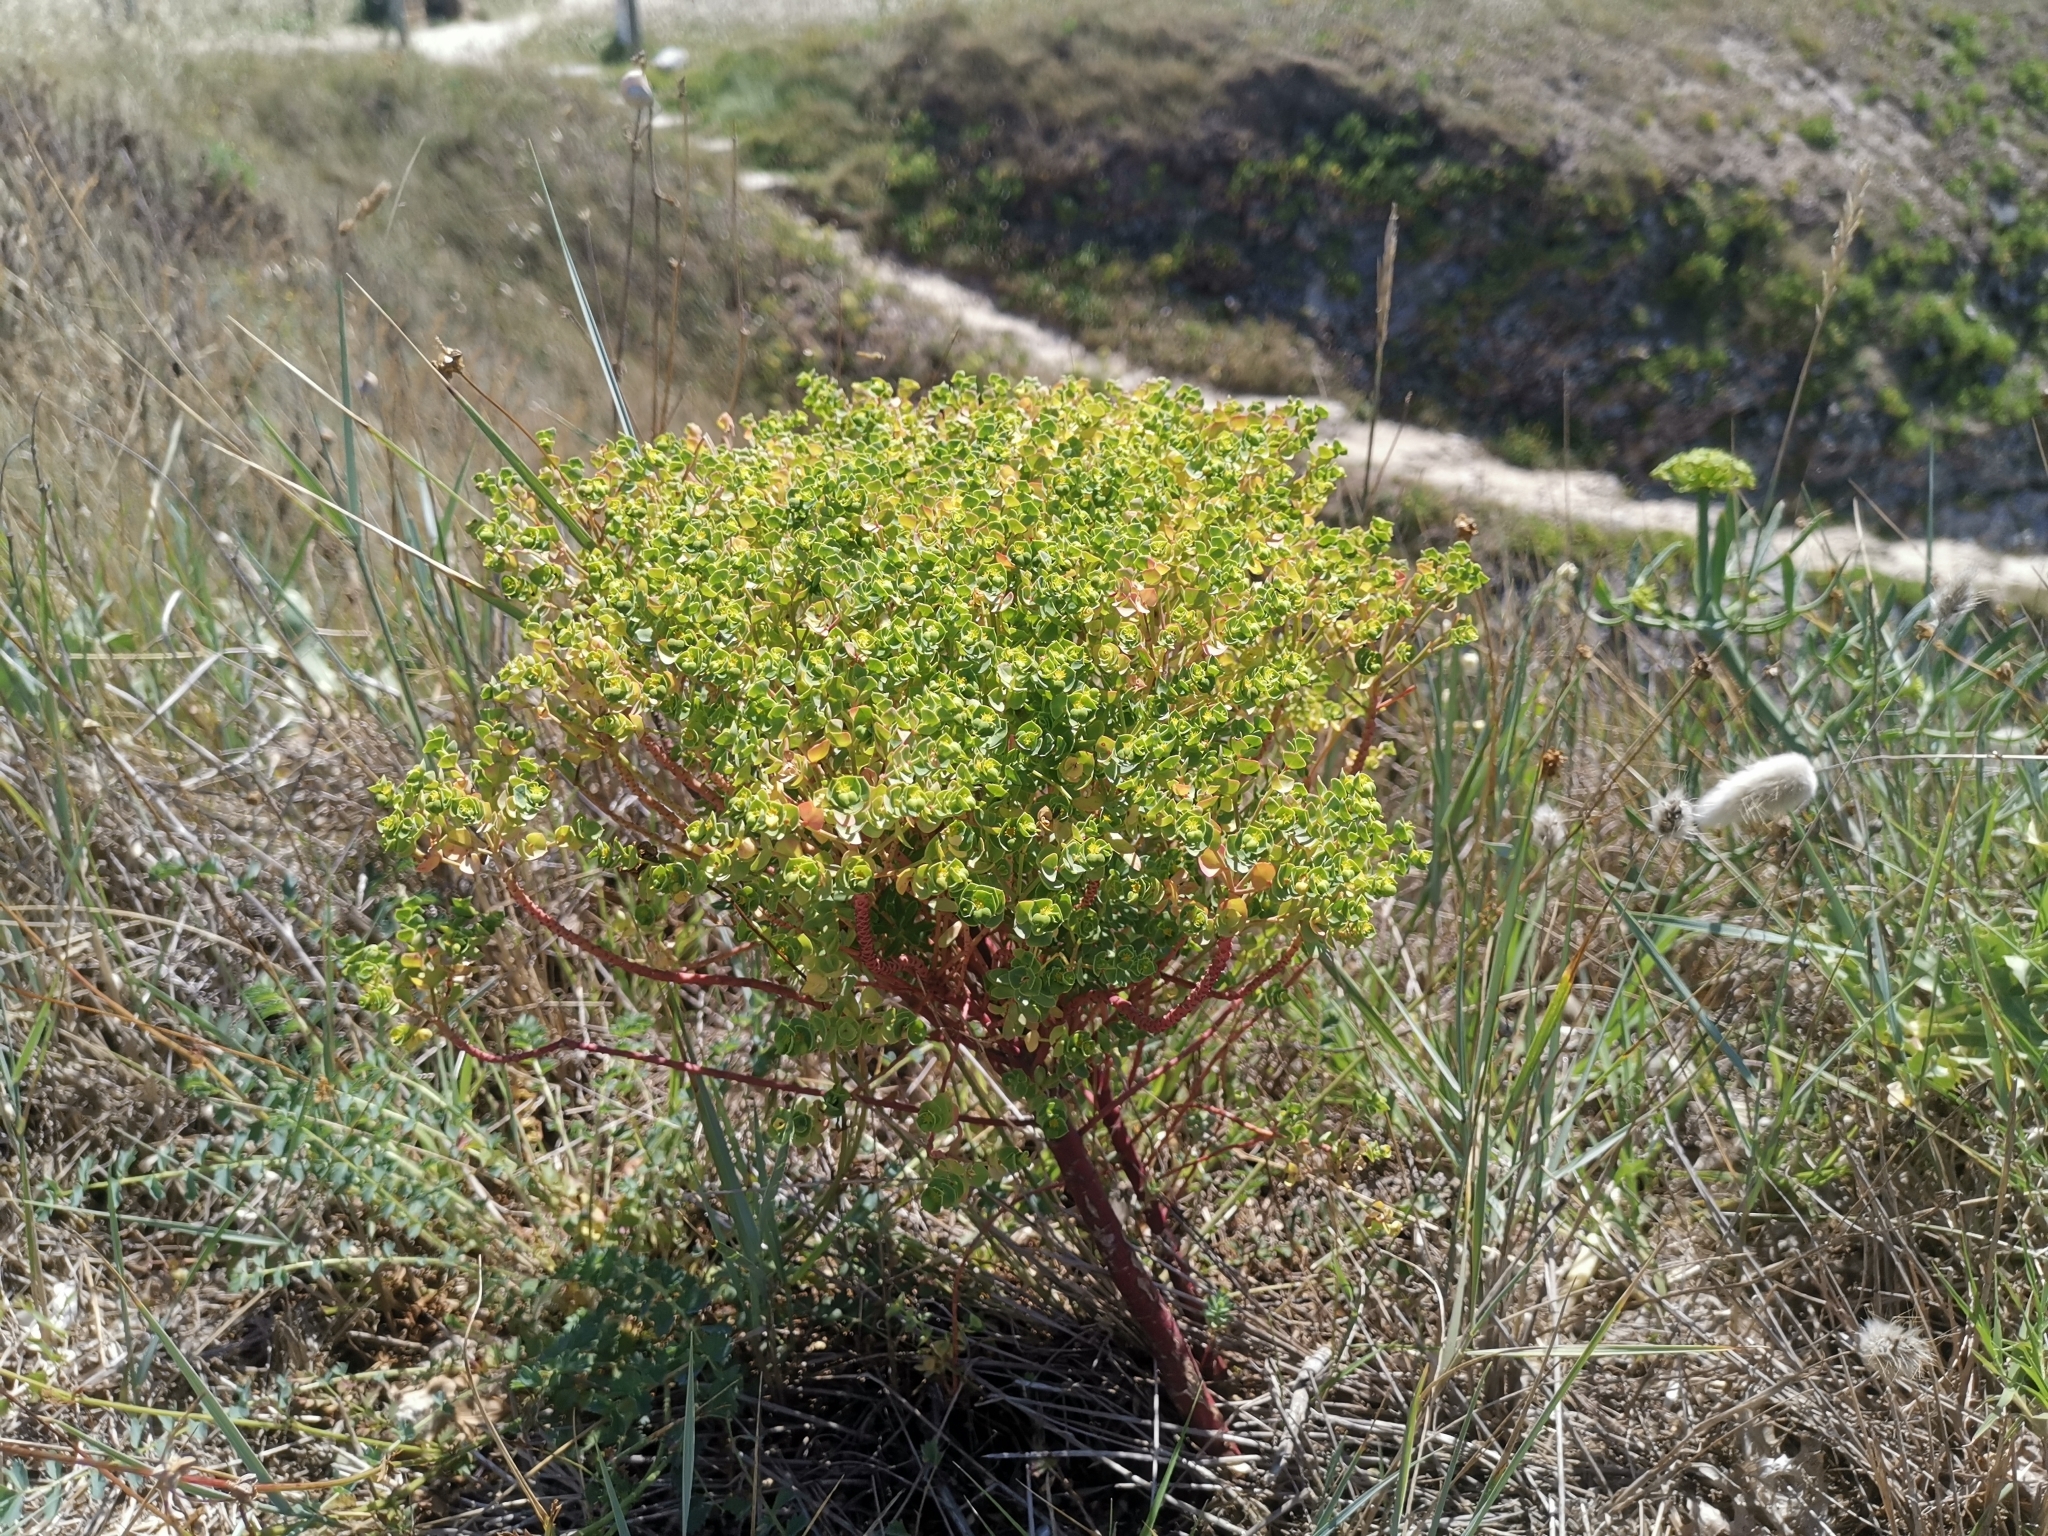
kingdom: Plantae
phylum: Tracheophyta
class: Magnoliopsida
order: Malpighiales
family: Euphorbiaceae
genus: Euphorbia
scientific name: Euphorbia portlandica
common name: Portland spurge
